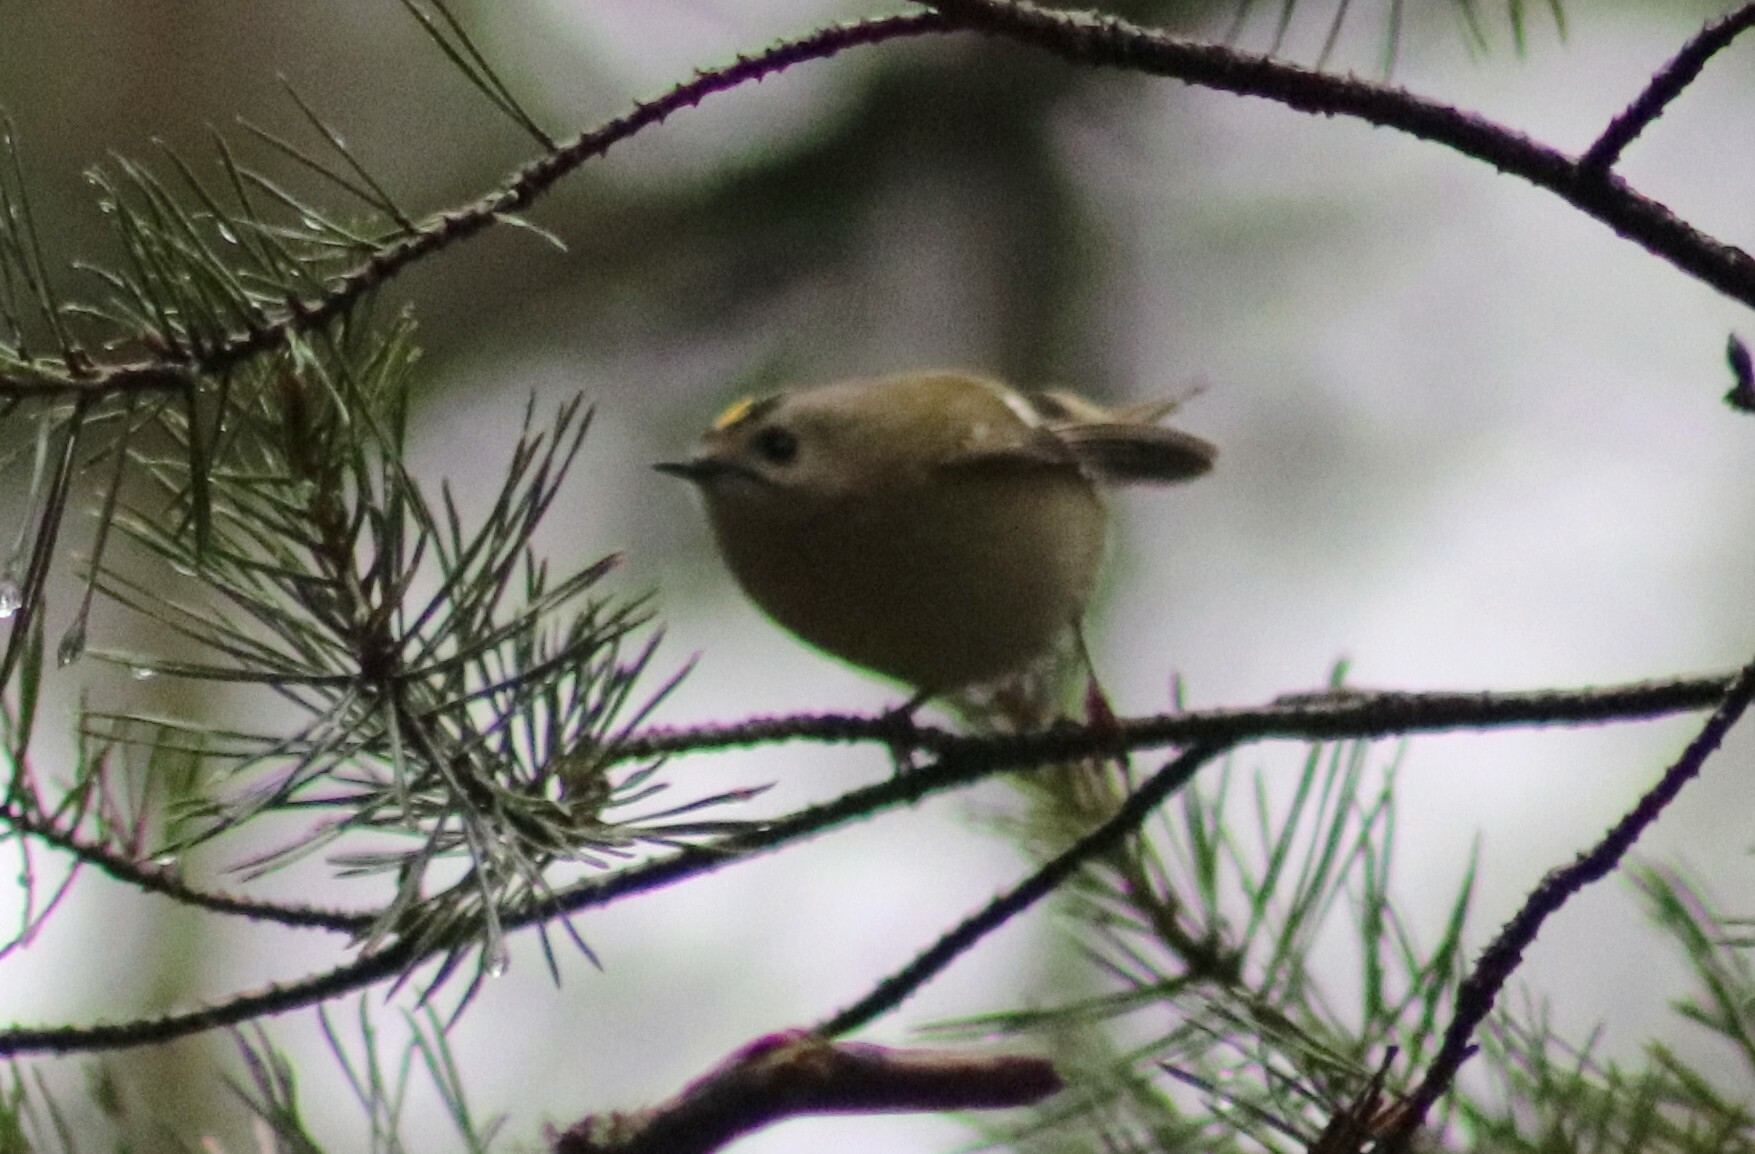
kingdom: Animalia
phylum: Chordata
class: Aves
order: Passeriformes
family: Regulidae
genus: Regulus
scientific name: Regulus regulus
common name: Goldcrest
